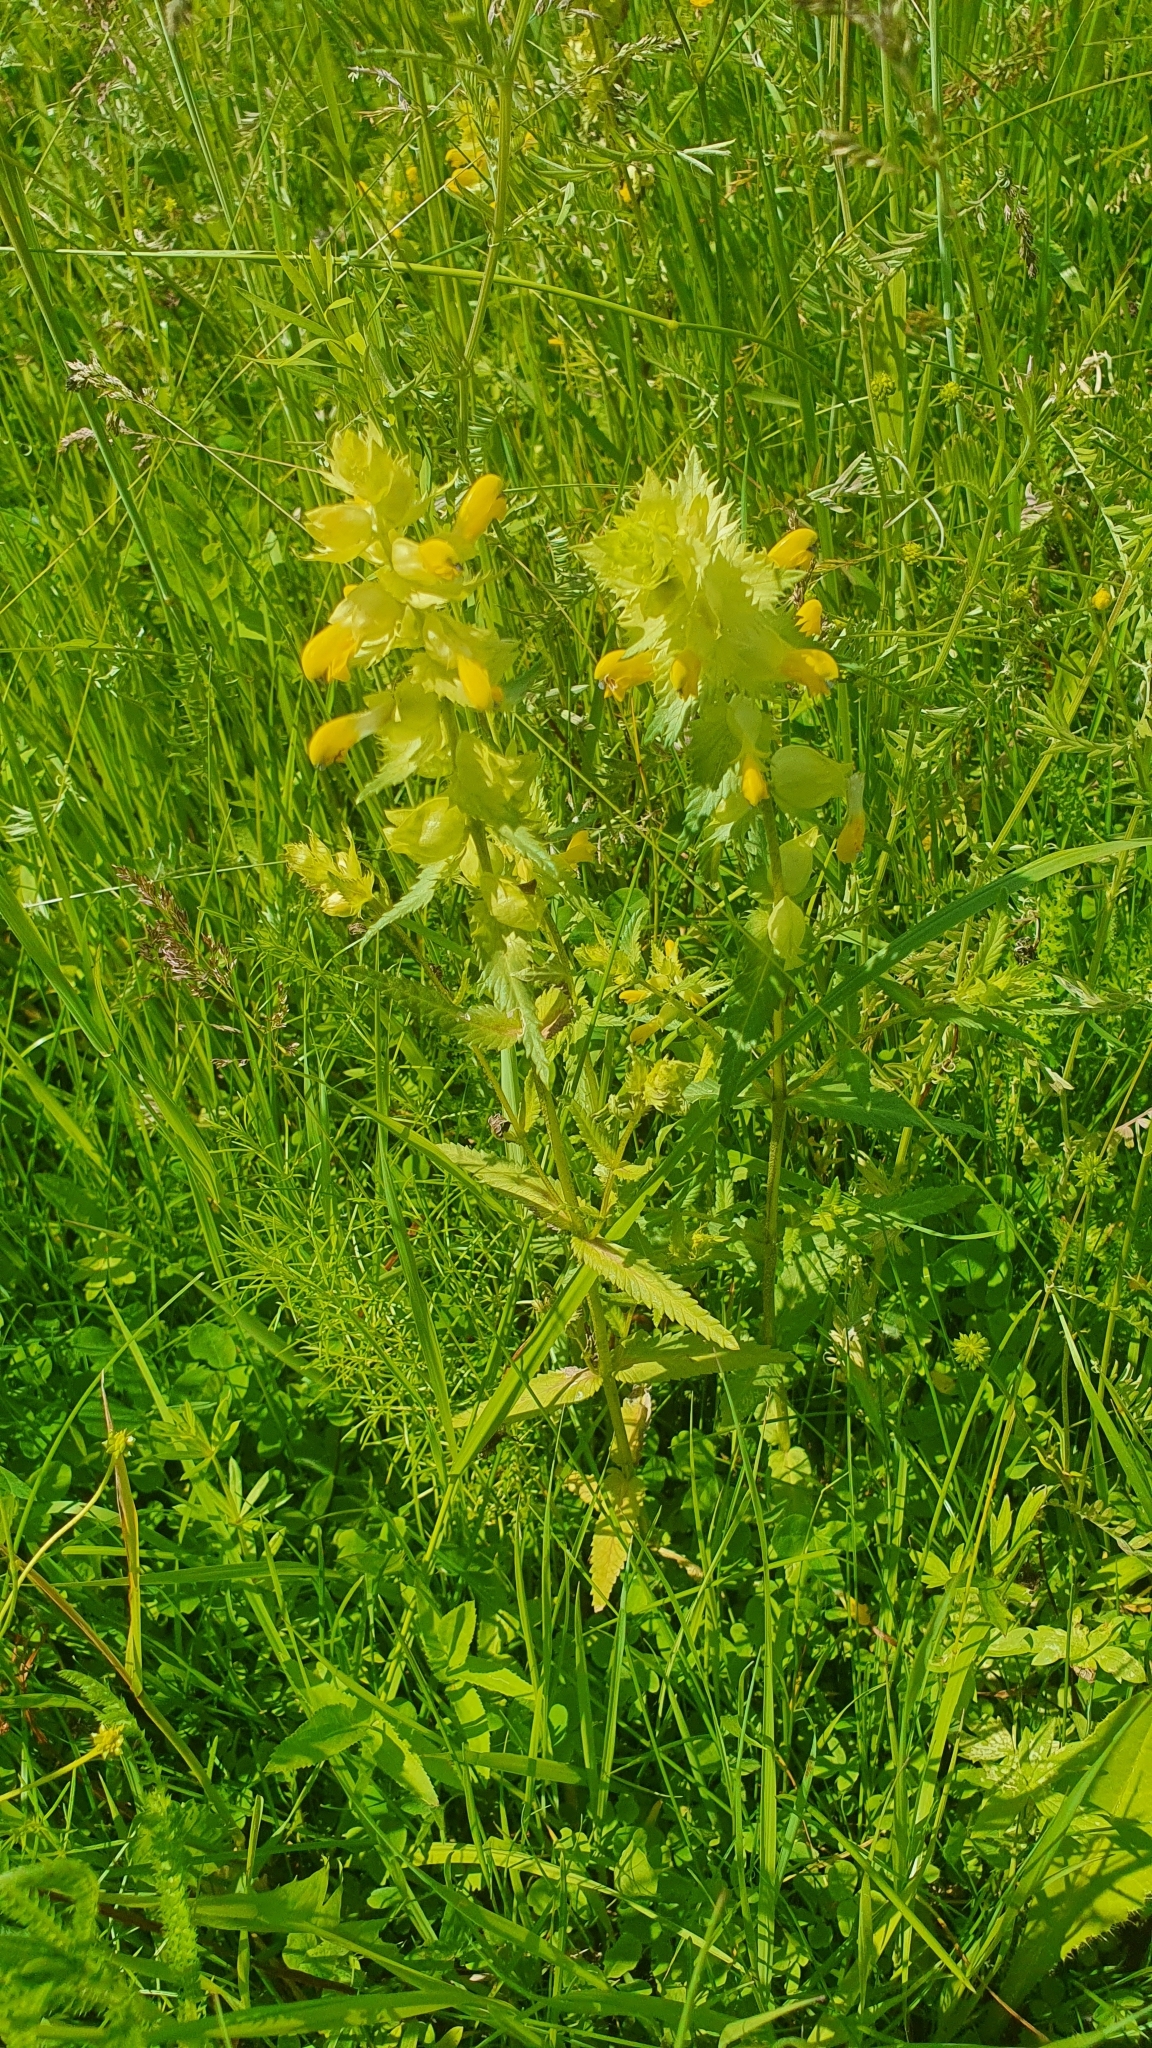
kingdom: Plantae
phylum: Tracheophyta
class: Magnoliopsida
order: Lamiales
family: Orobanchaceae
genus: Rhinanthus
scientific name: Rhinanthus serotinus
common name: Late-flowering yellow rattle
